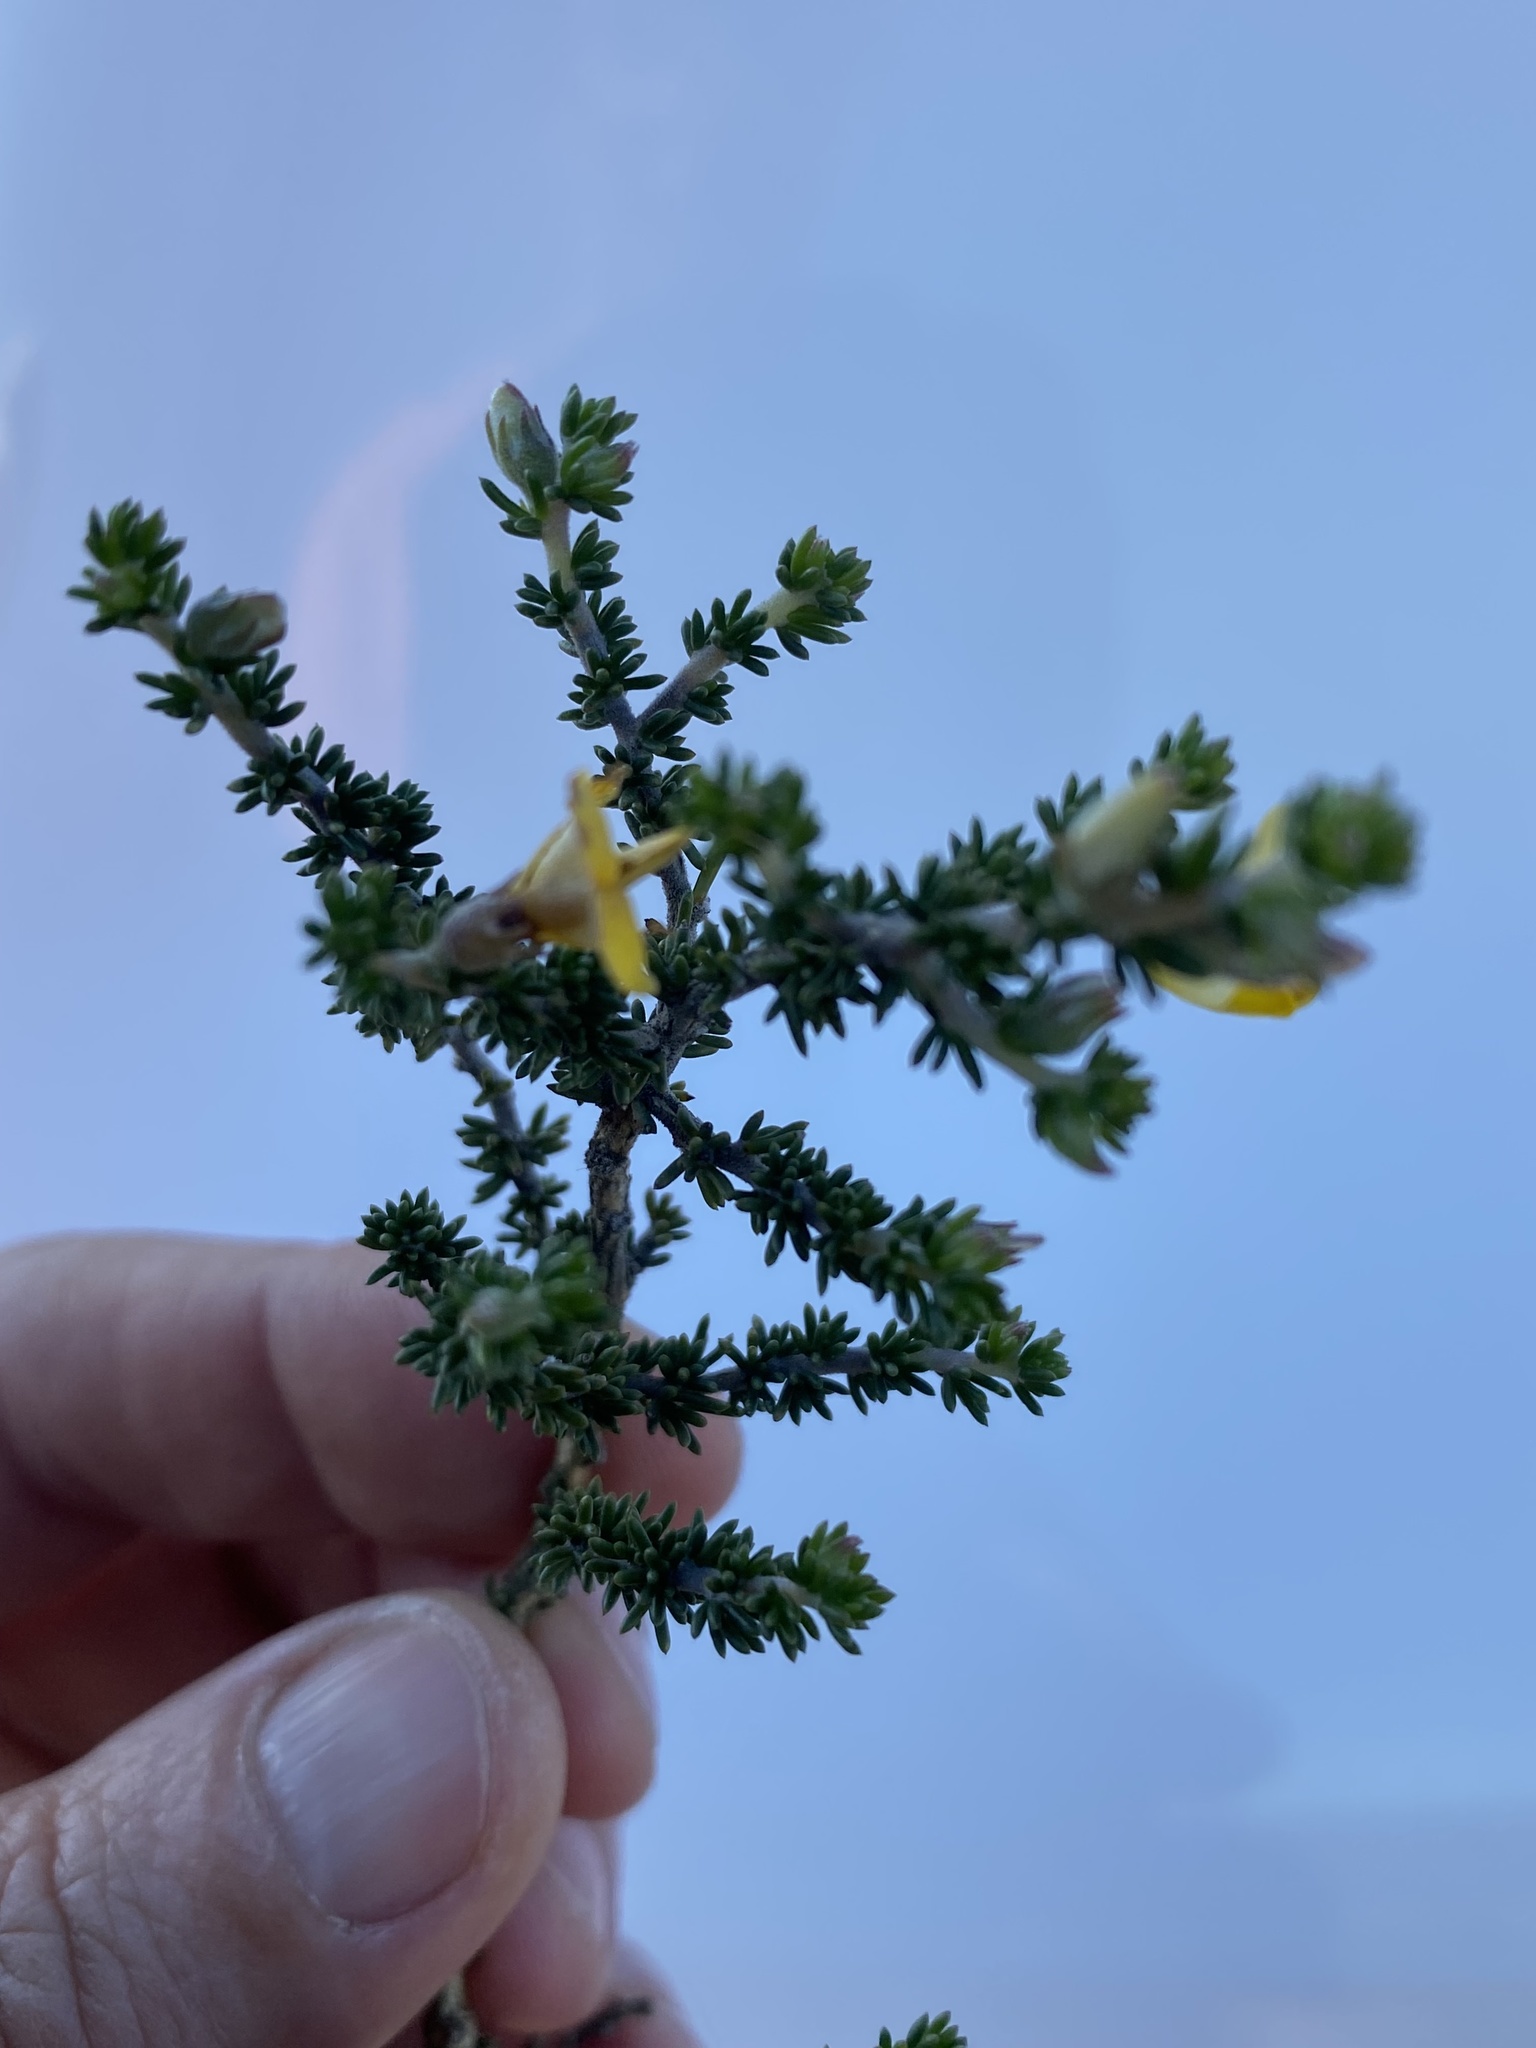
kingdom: Plantae
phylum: Tracheophyta
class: Magnoliopsida
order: Fabales
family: Fabaceae
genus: Aspalathus
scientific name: Aspalathus laricifolia
